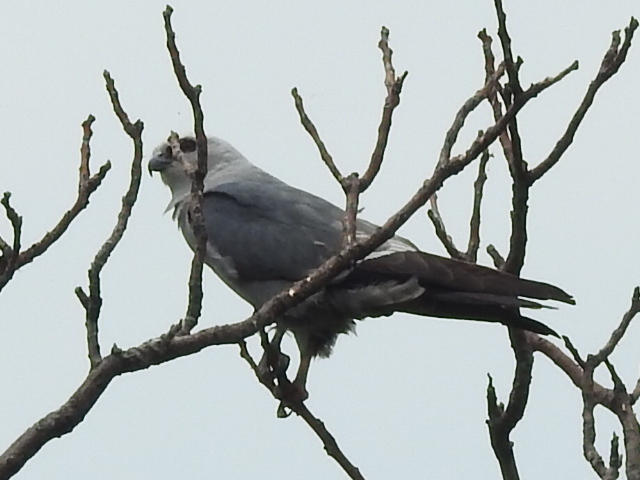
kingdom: Animalia
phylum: Chordata
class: Aves
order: Accipitriformes
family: Accipitridae
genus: Ictinia
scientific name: Ictinia mississippiensis
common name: Mississippi kite
